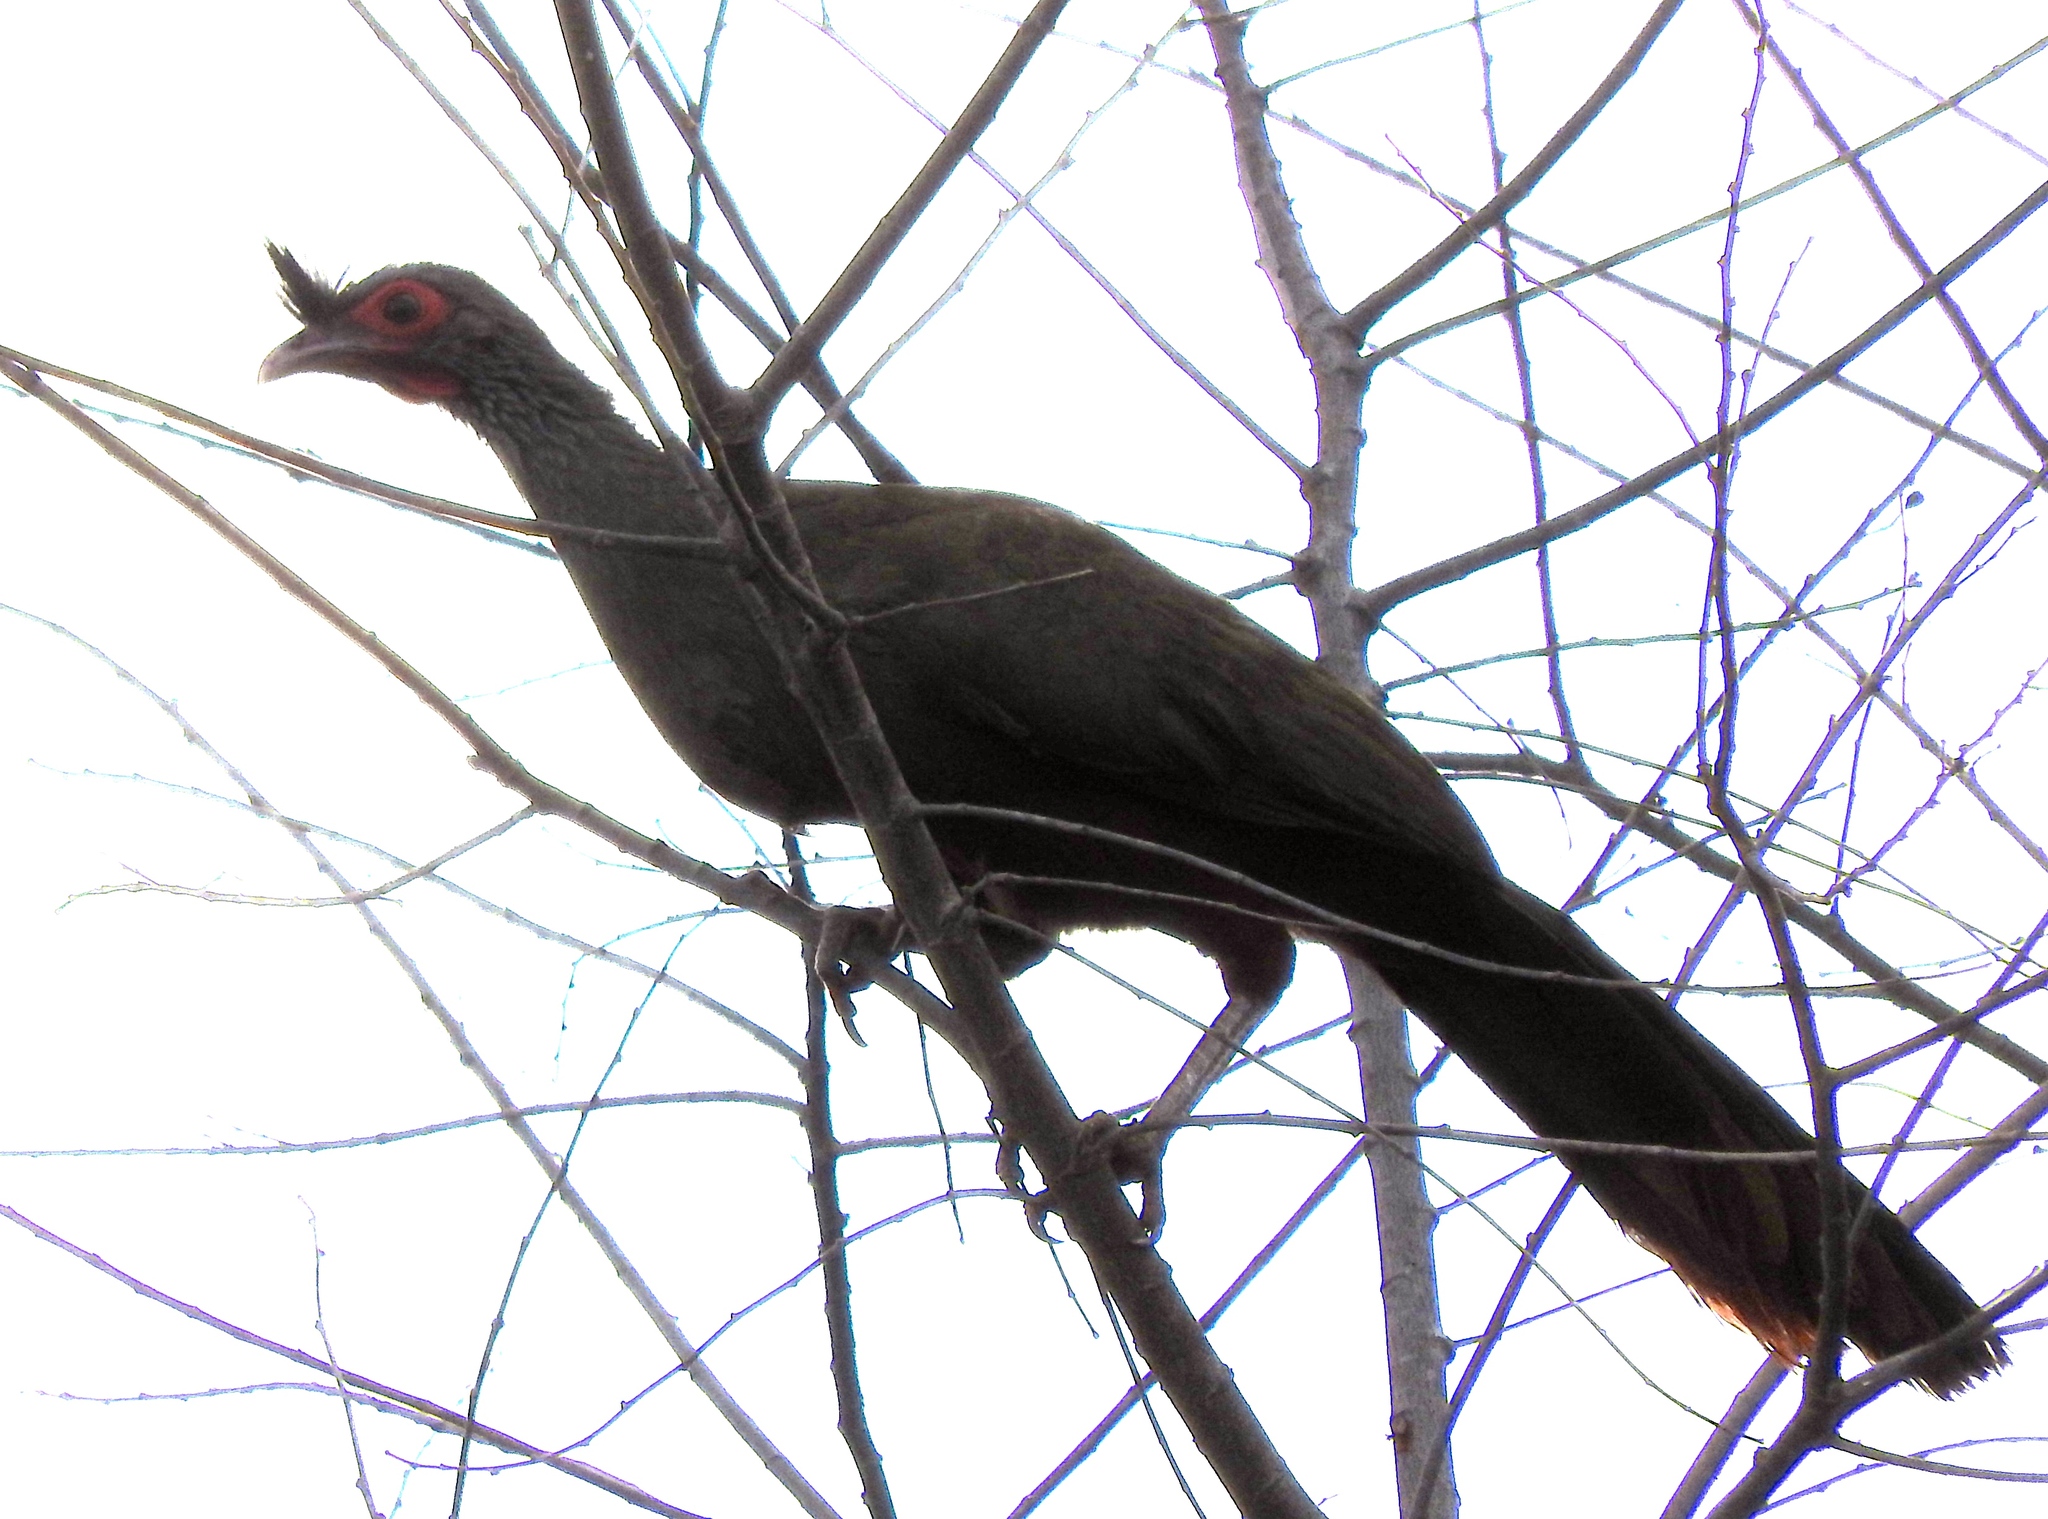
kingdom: Animalia
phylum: Chordata
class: Aves
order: Galliformes
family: Cracidae
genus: Ortalis
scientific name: Ortalis wagleri
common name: Rufous-bellied chachalaca
